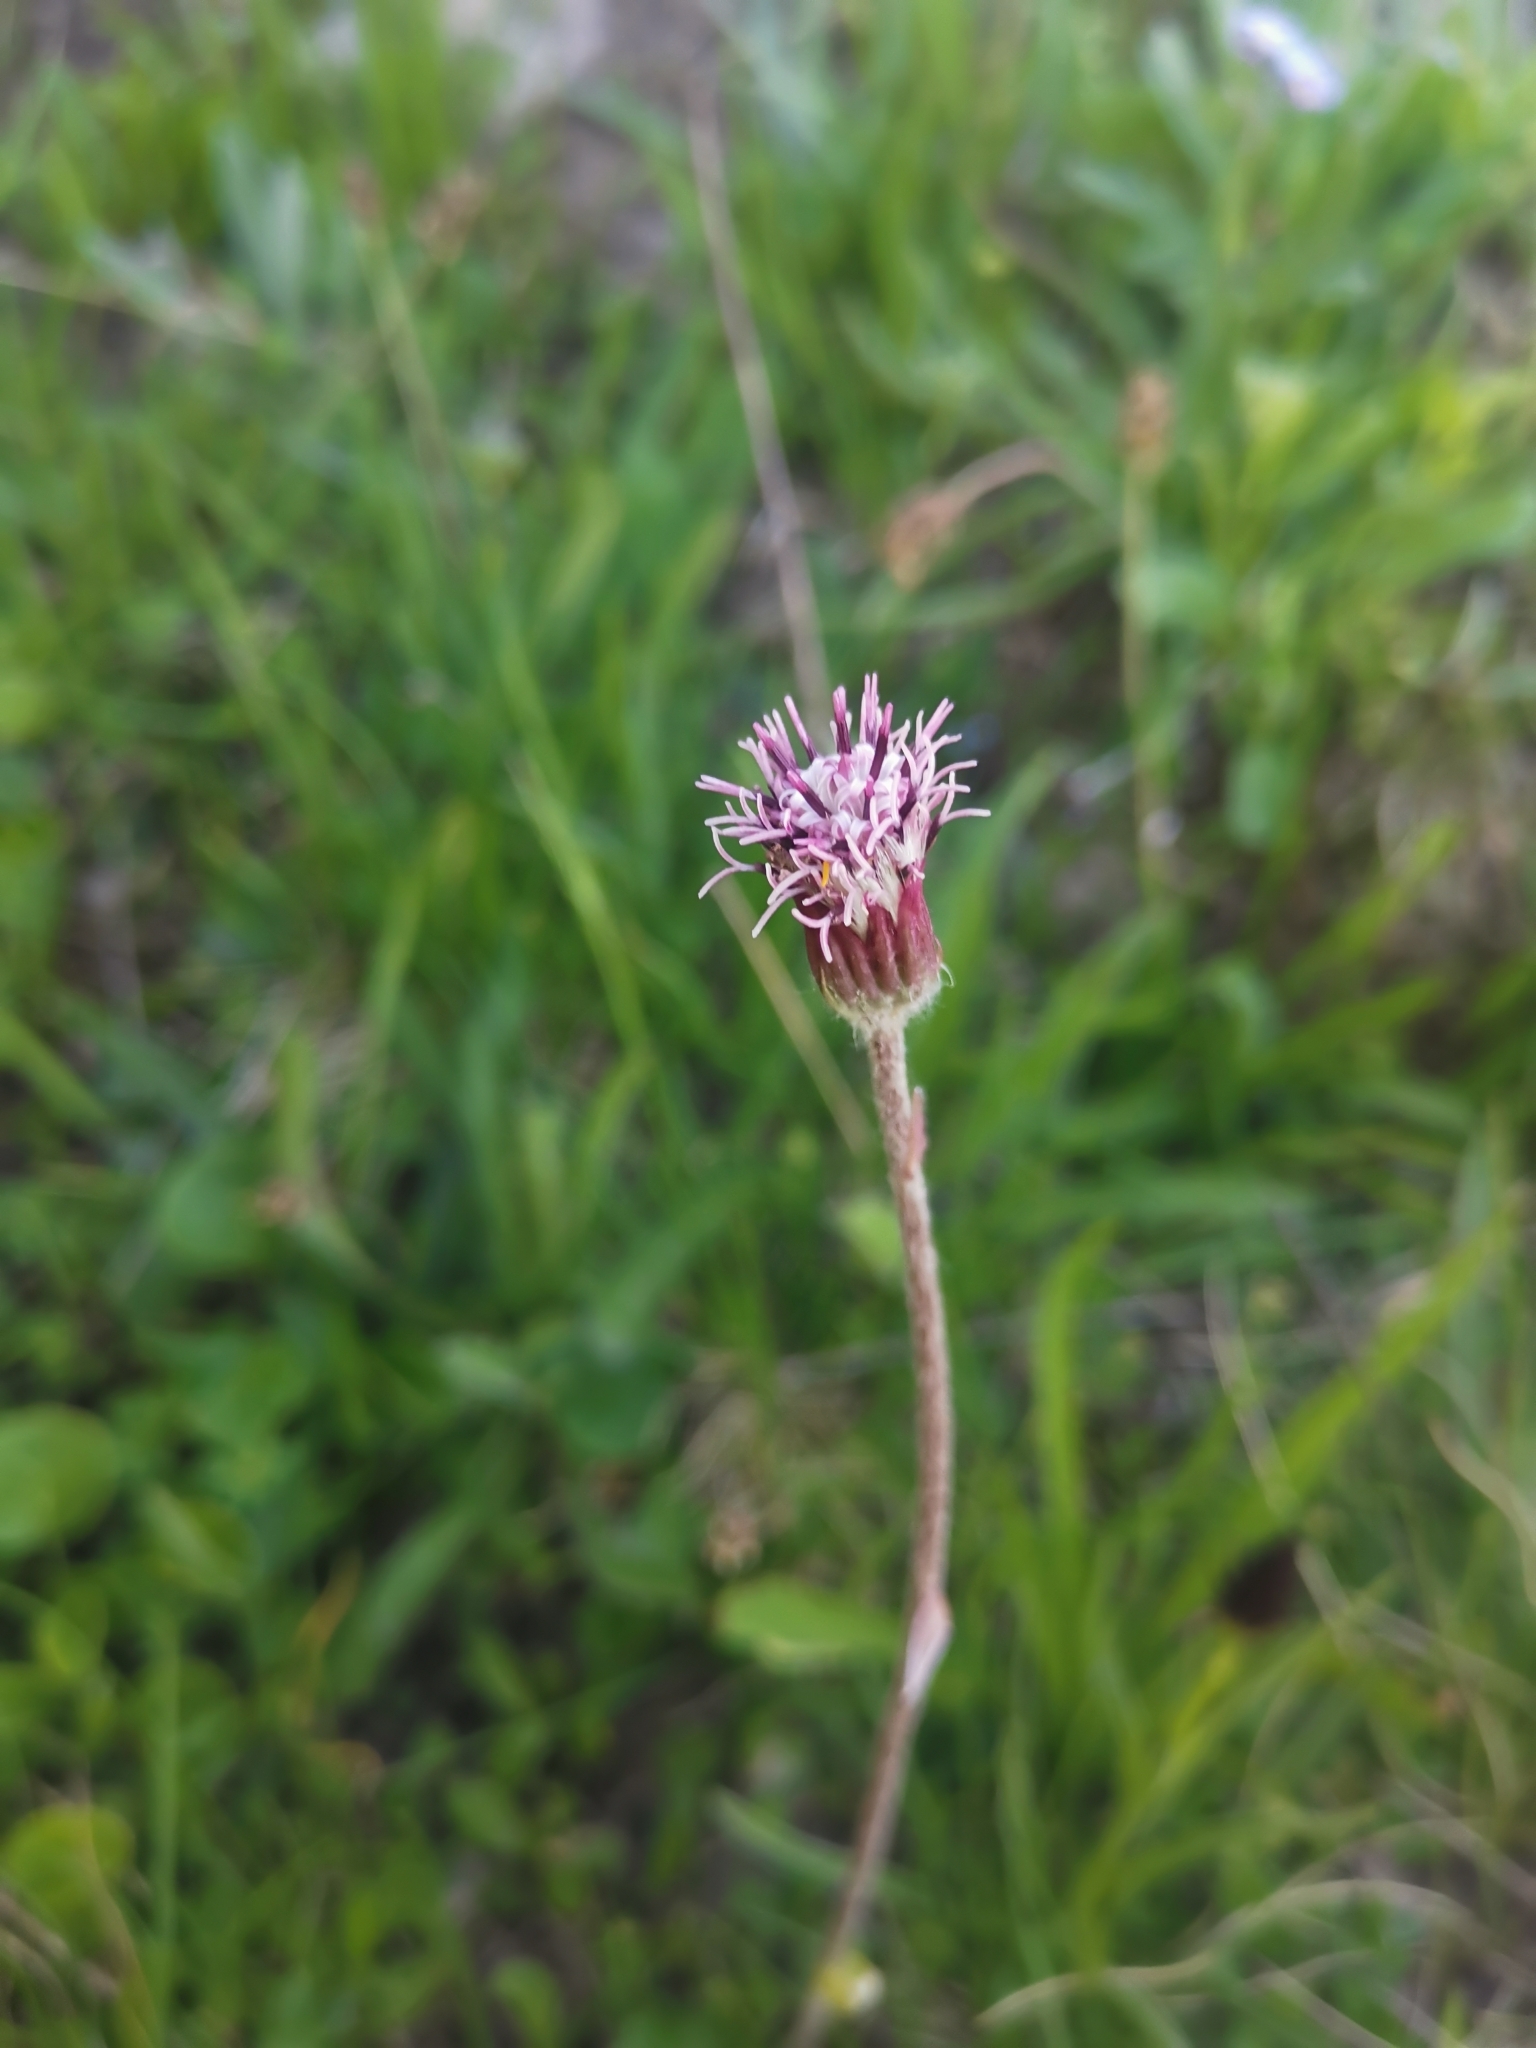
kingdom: Plantae
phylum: Tracheophyta
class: Magnoliopsida
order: Asterales
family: Asteraceae
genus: Homogyne
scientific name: Homogyne alpina
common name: Purple colt's-foot
